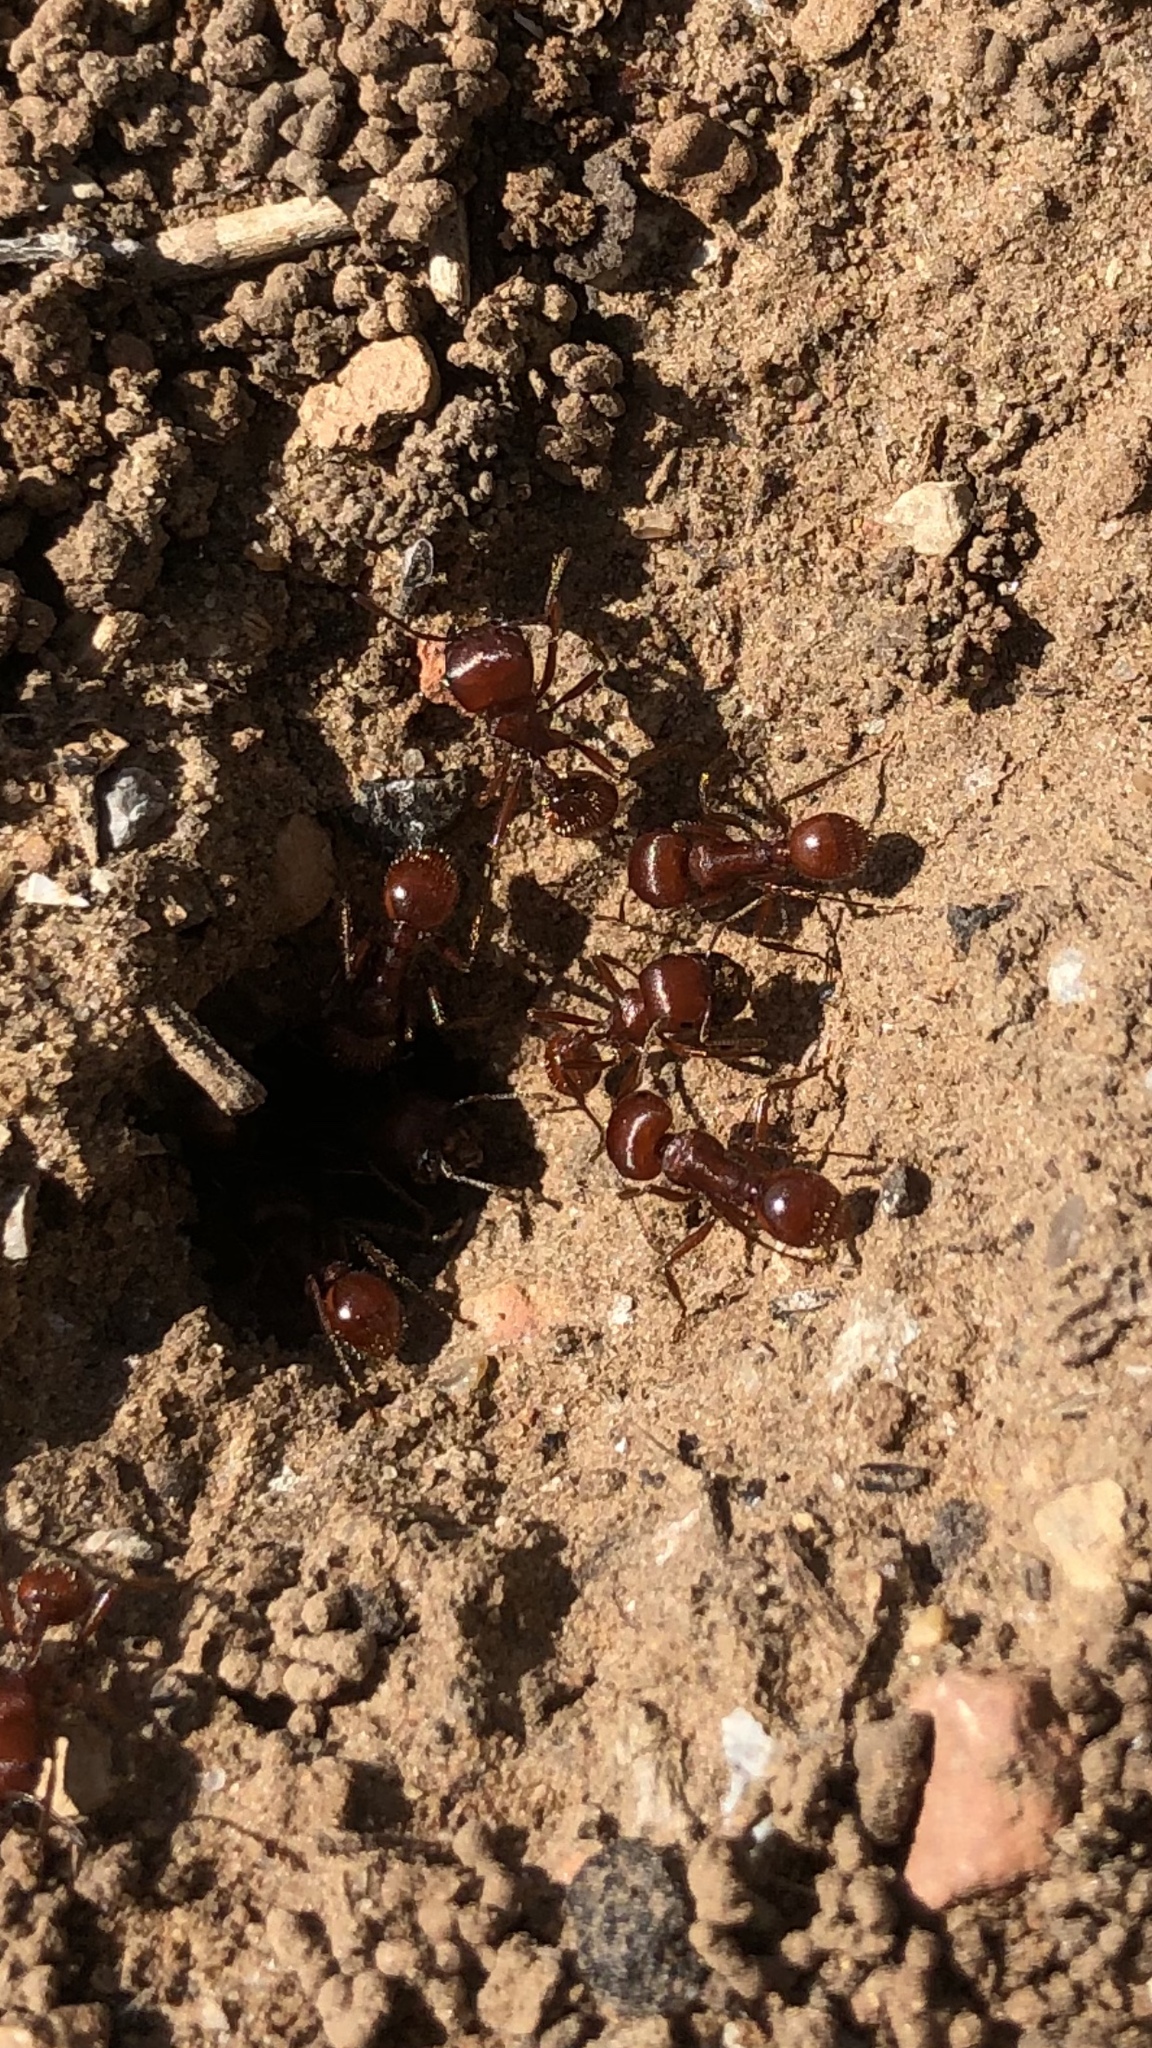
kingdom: Animalia
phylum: Arthropoda
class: Insecta
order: Hymenoptera
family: Formicidae
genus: Pogonomyrmex
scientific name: Pogonomyrmex barbatus
